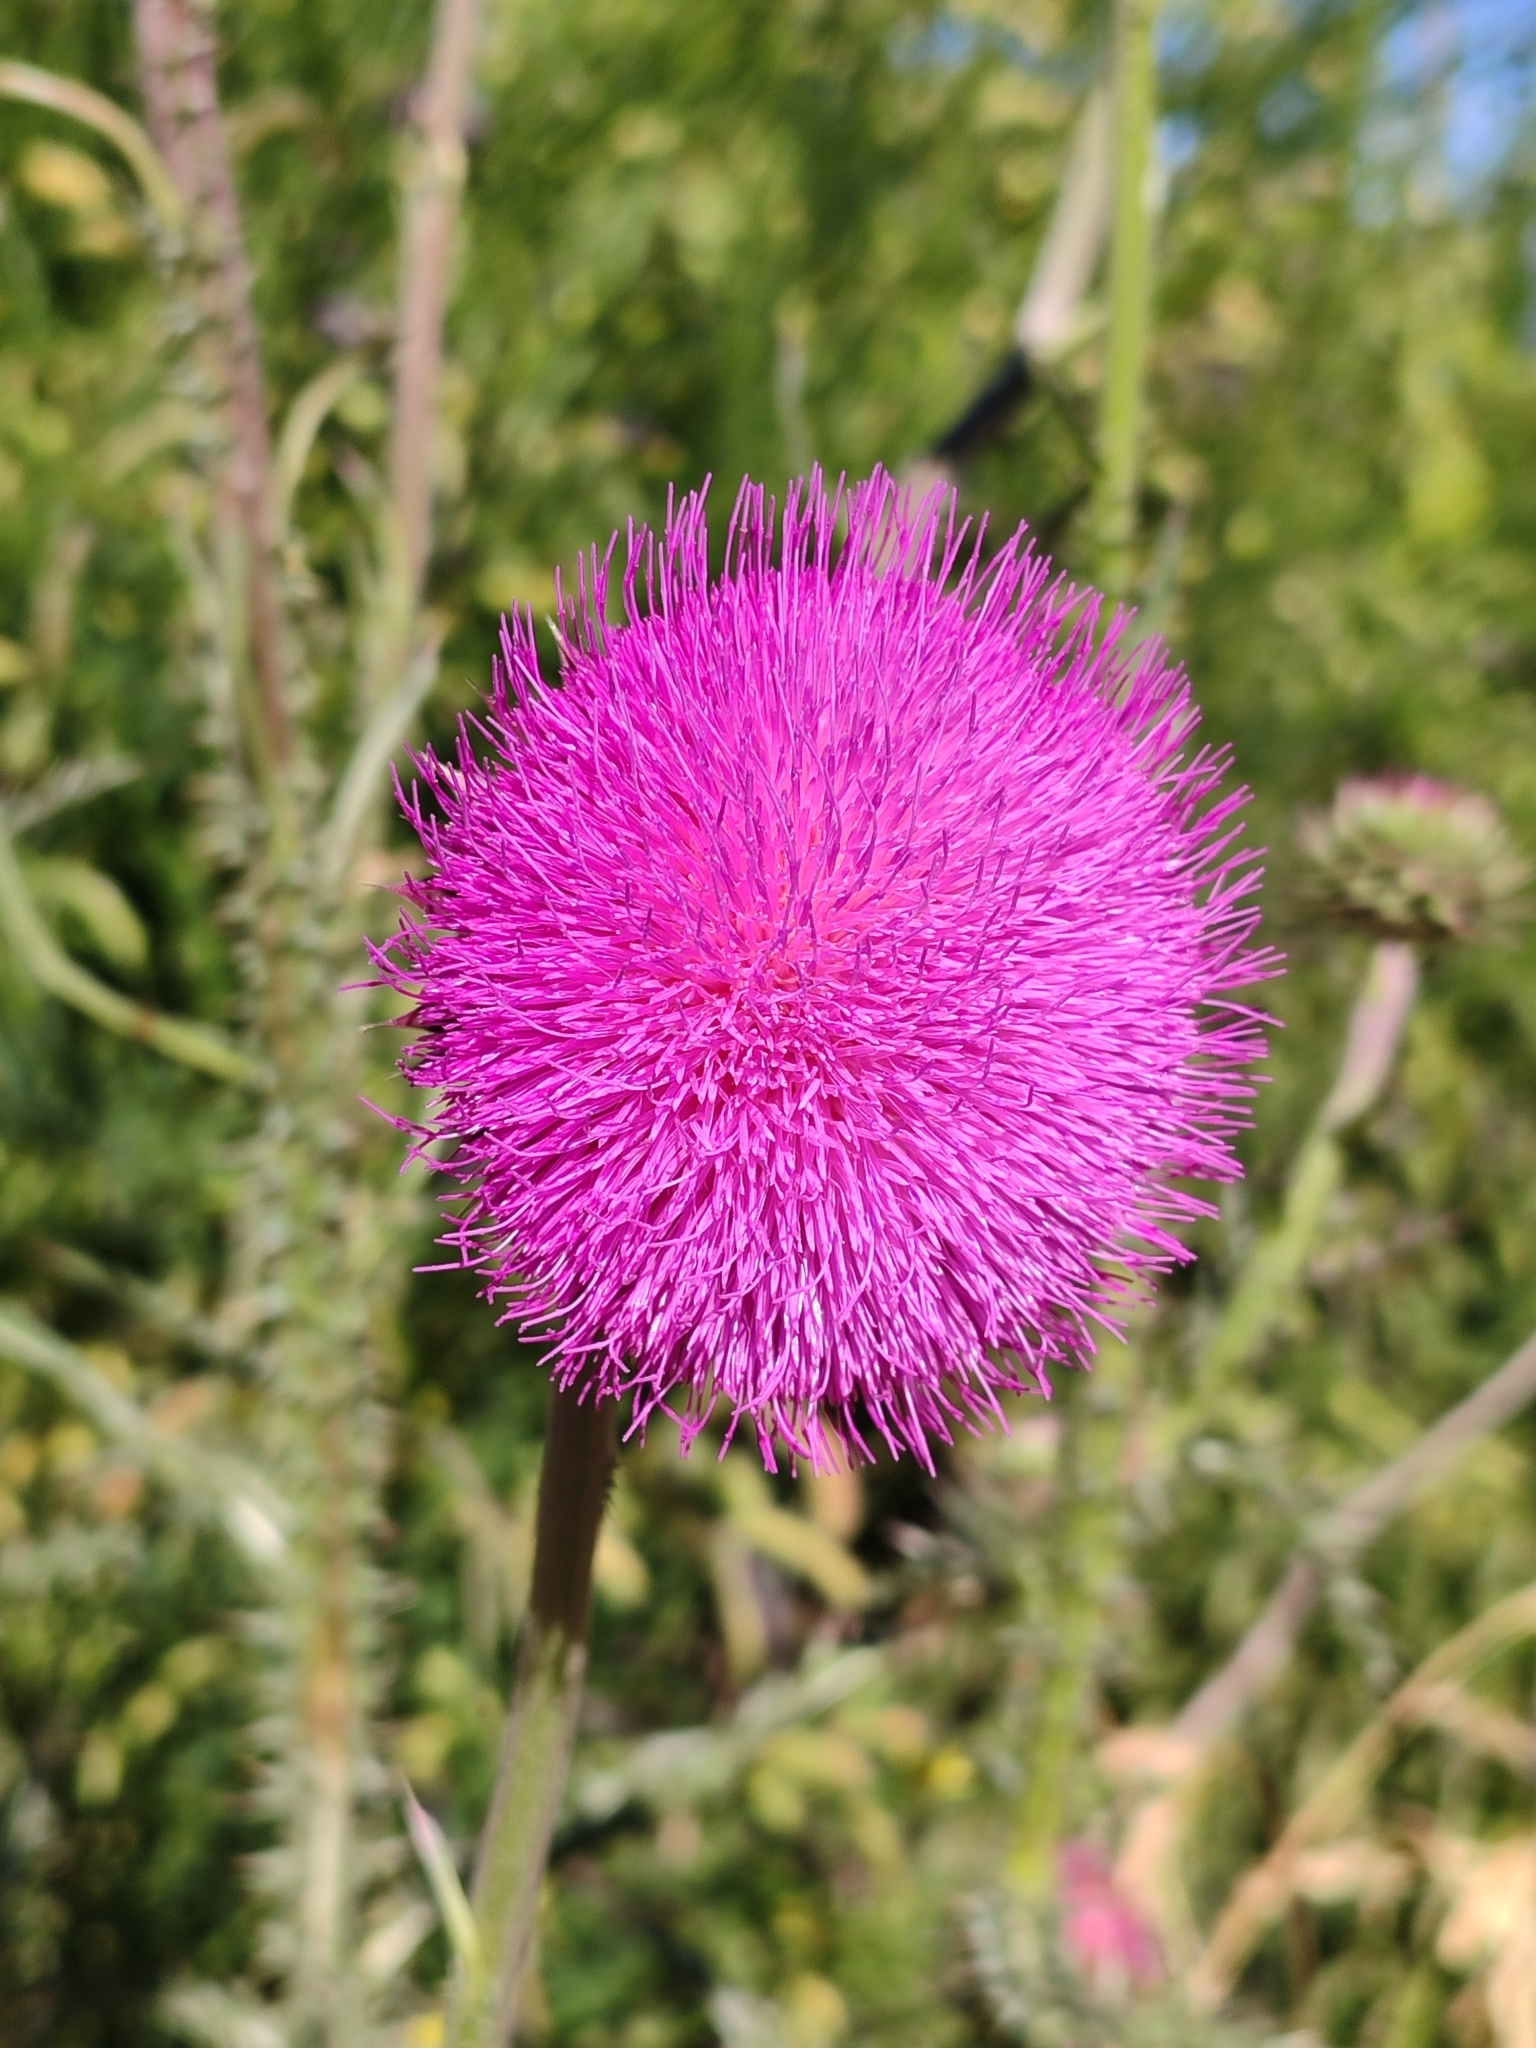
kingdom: Plantae
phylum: Tracheophyta
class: Magnoliopsida
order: Asterales
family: Asteraceae
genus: Carduus
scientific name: Carduus nutans
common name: Musk thistle
